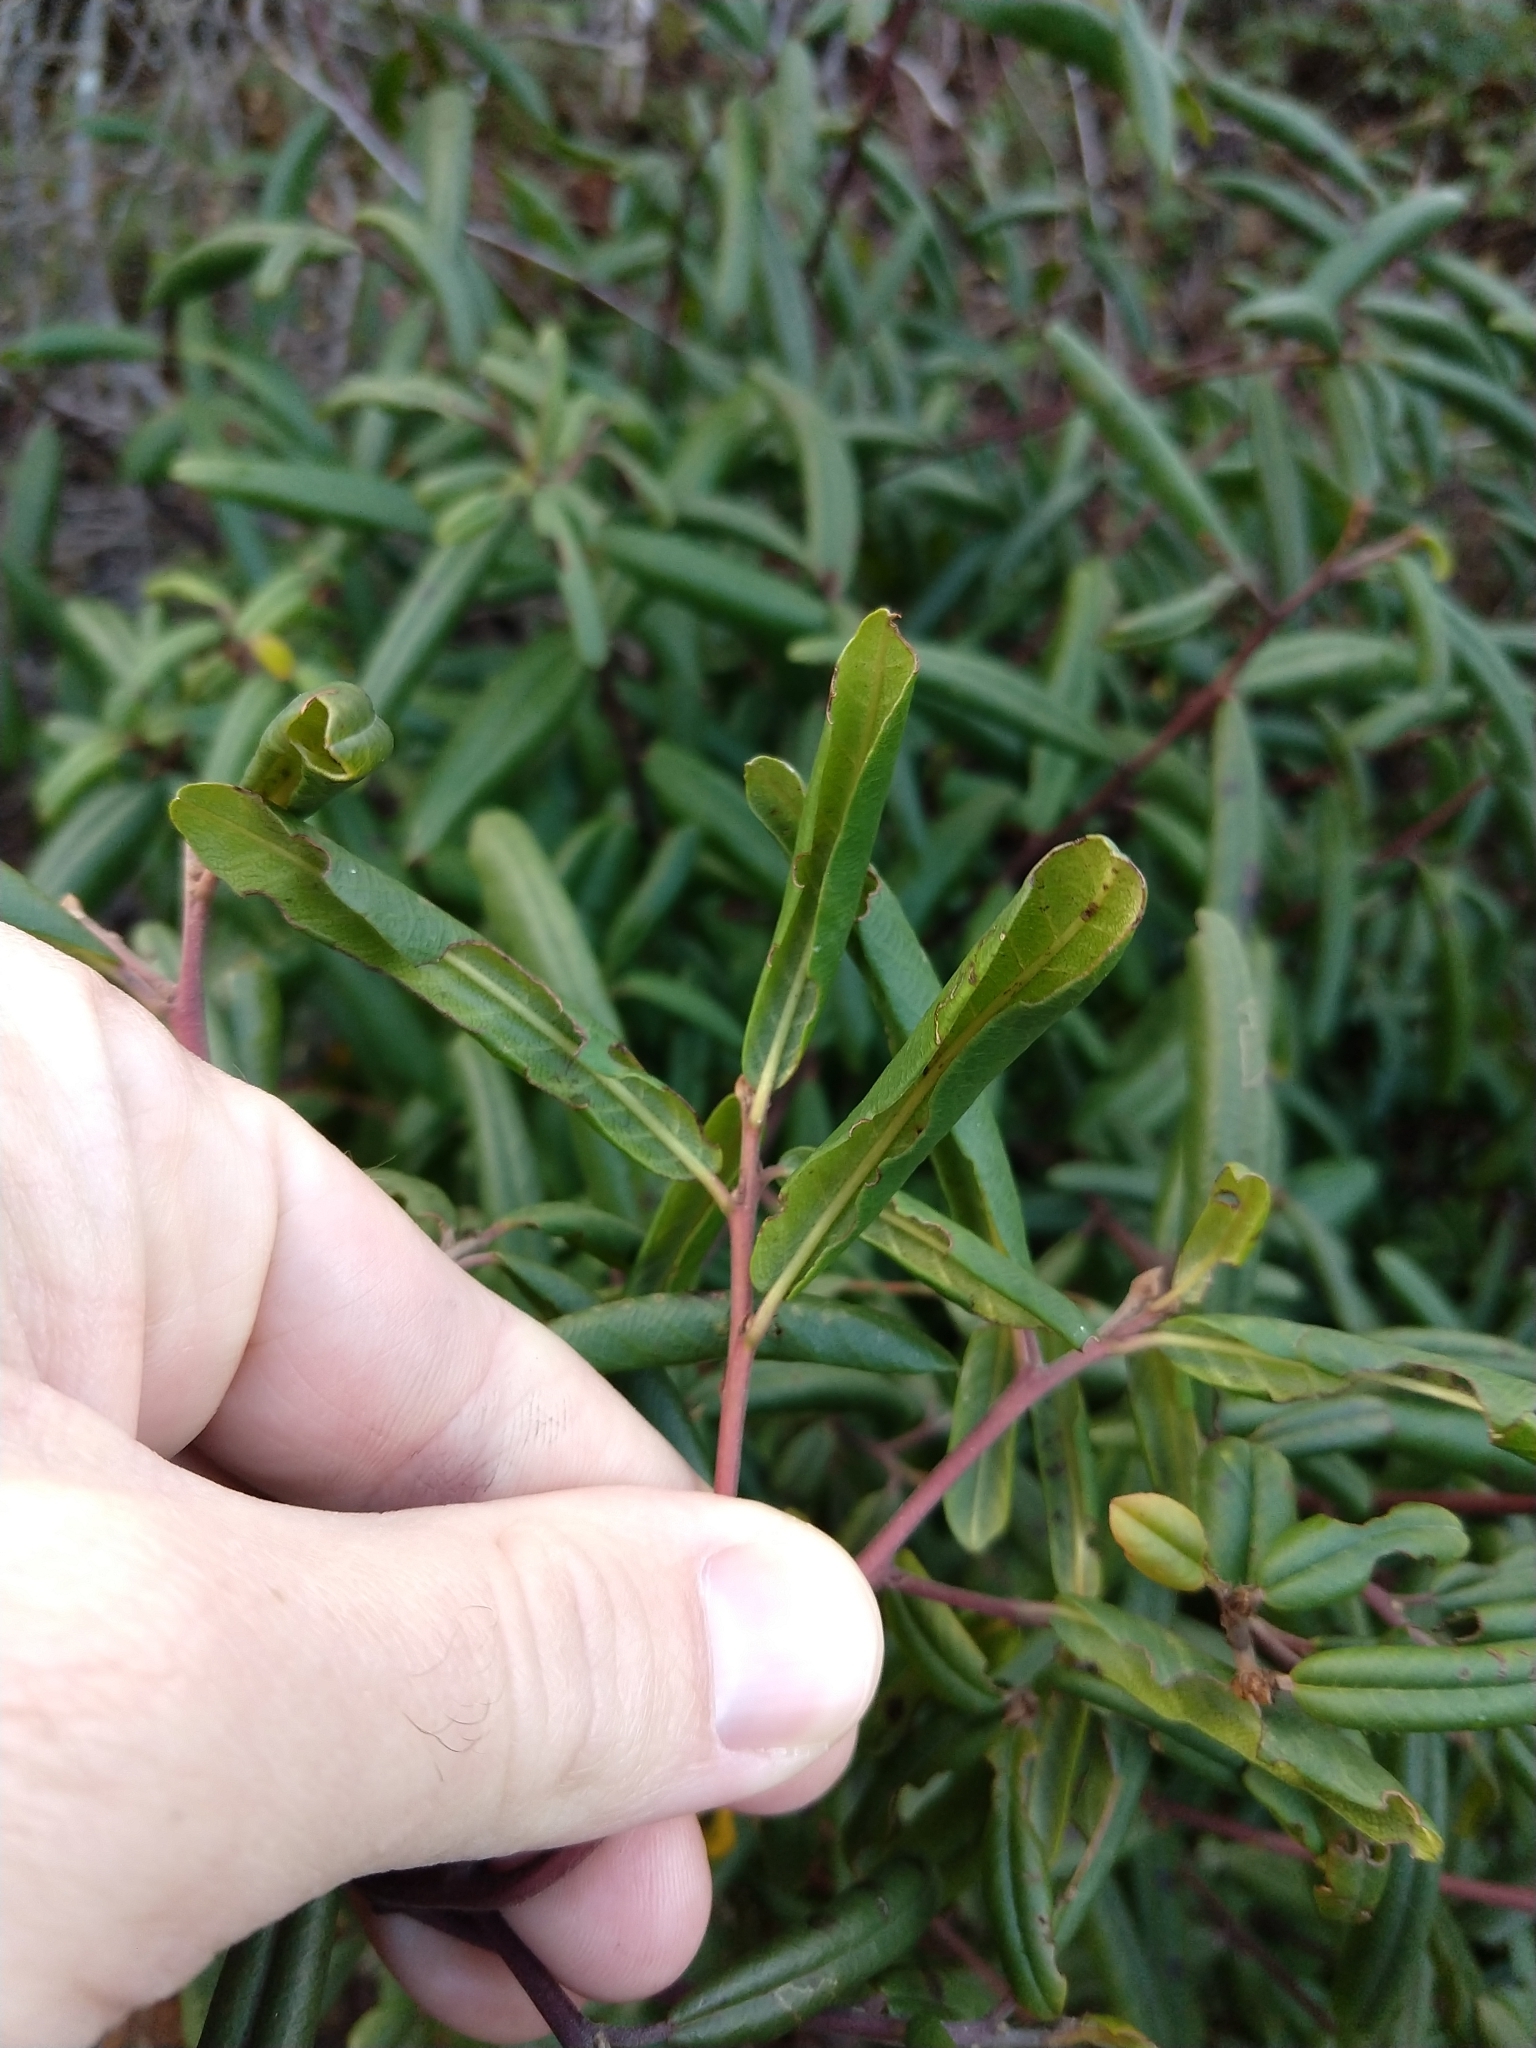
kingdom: Plantae
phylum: Tracheophyta
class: Magnoliopsida
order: Rosales
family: Rhamnaceae
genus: Frangula
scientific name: Frangula californica
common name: California buckthorn
